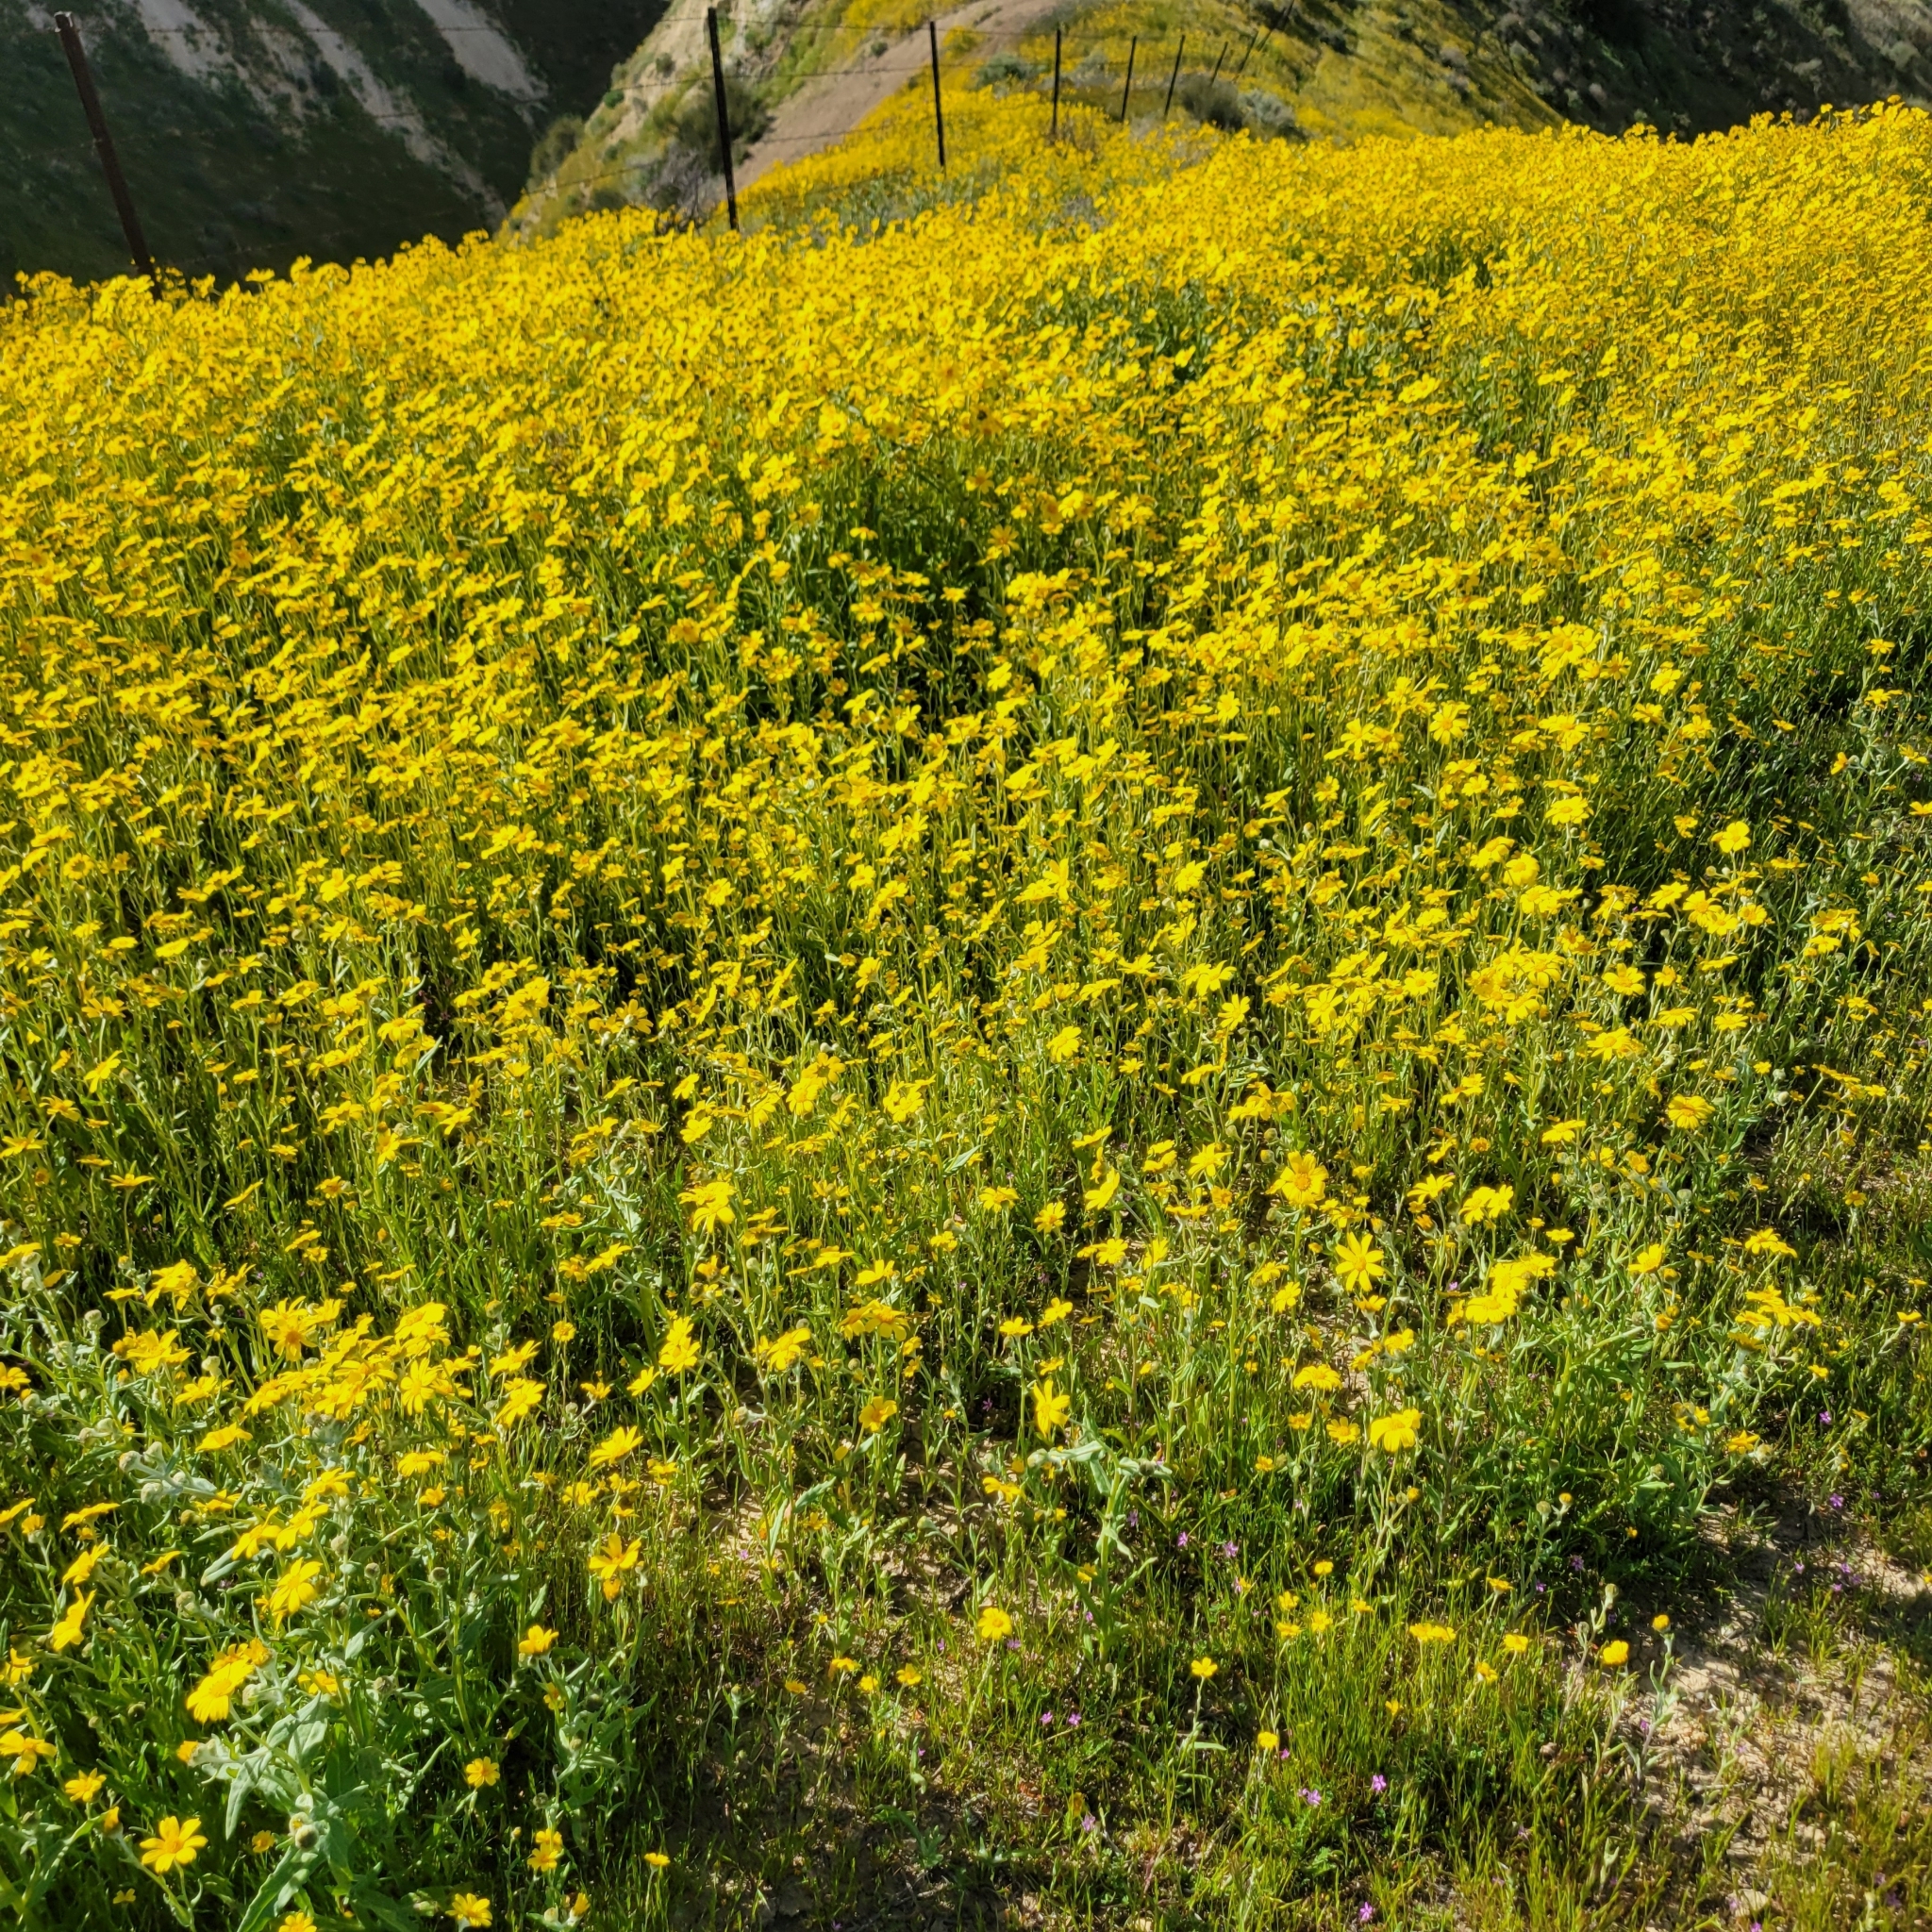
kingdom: Plantae
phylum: Tracheophyta
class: Magnoliopsida
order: Asterales
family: Asteraceae
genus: Monolopia
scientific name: Monolopia lanceolata
